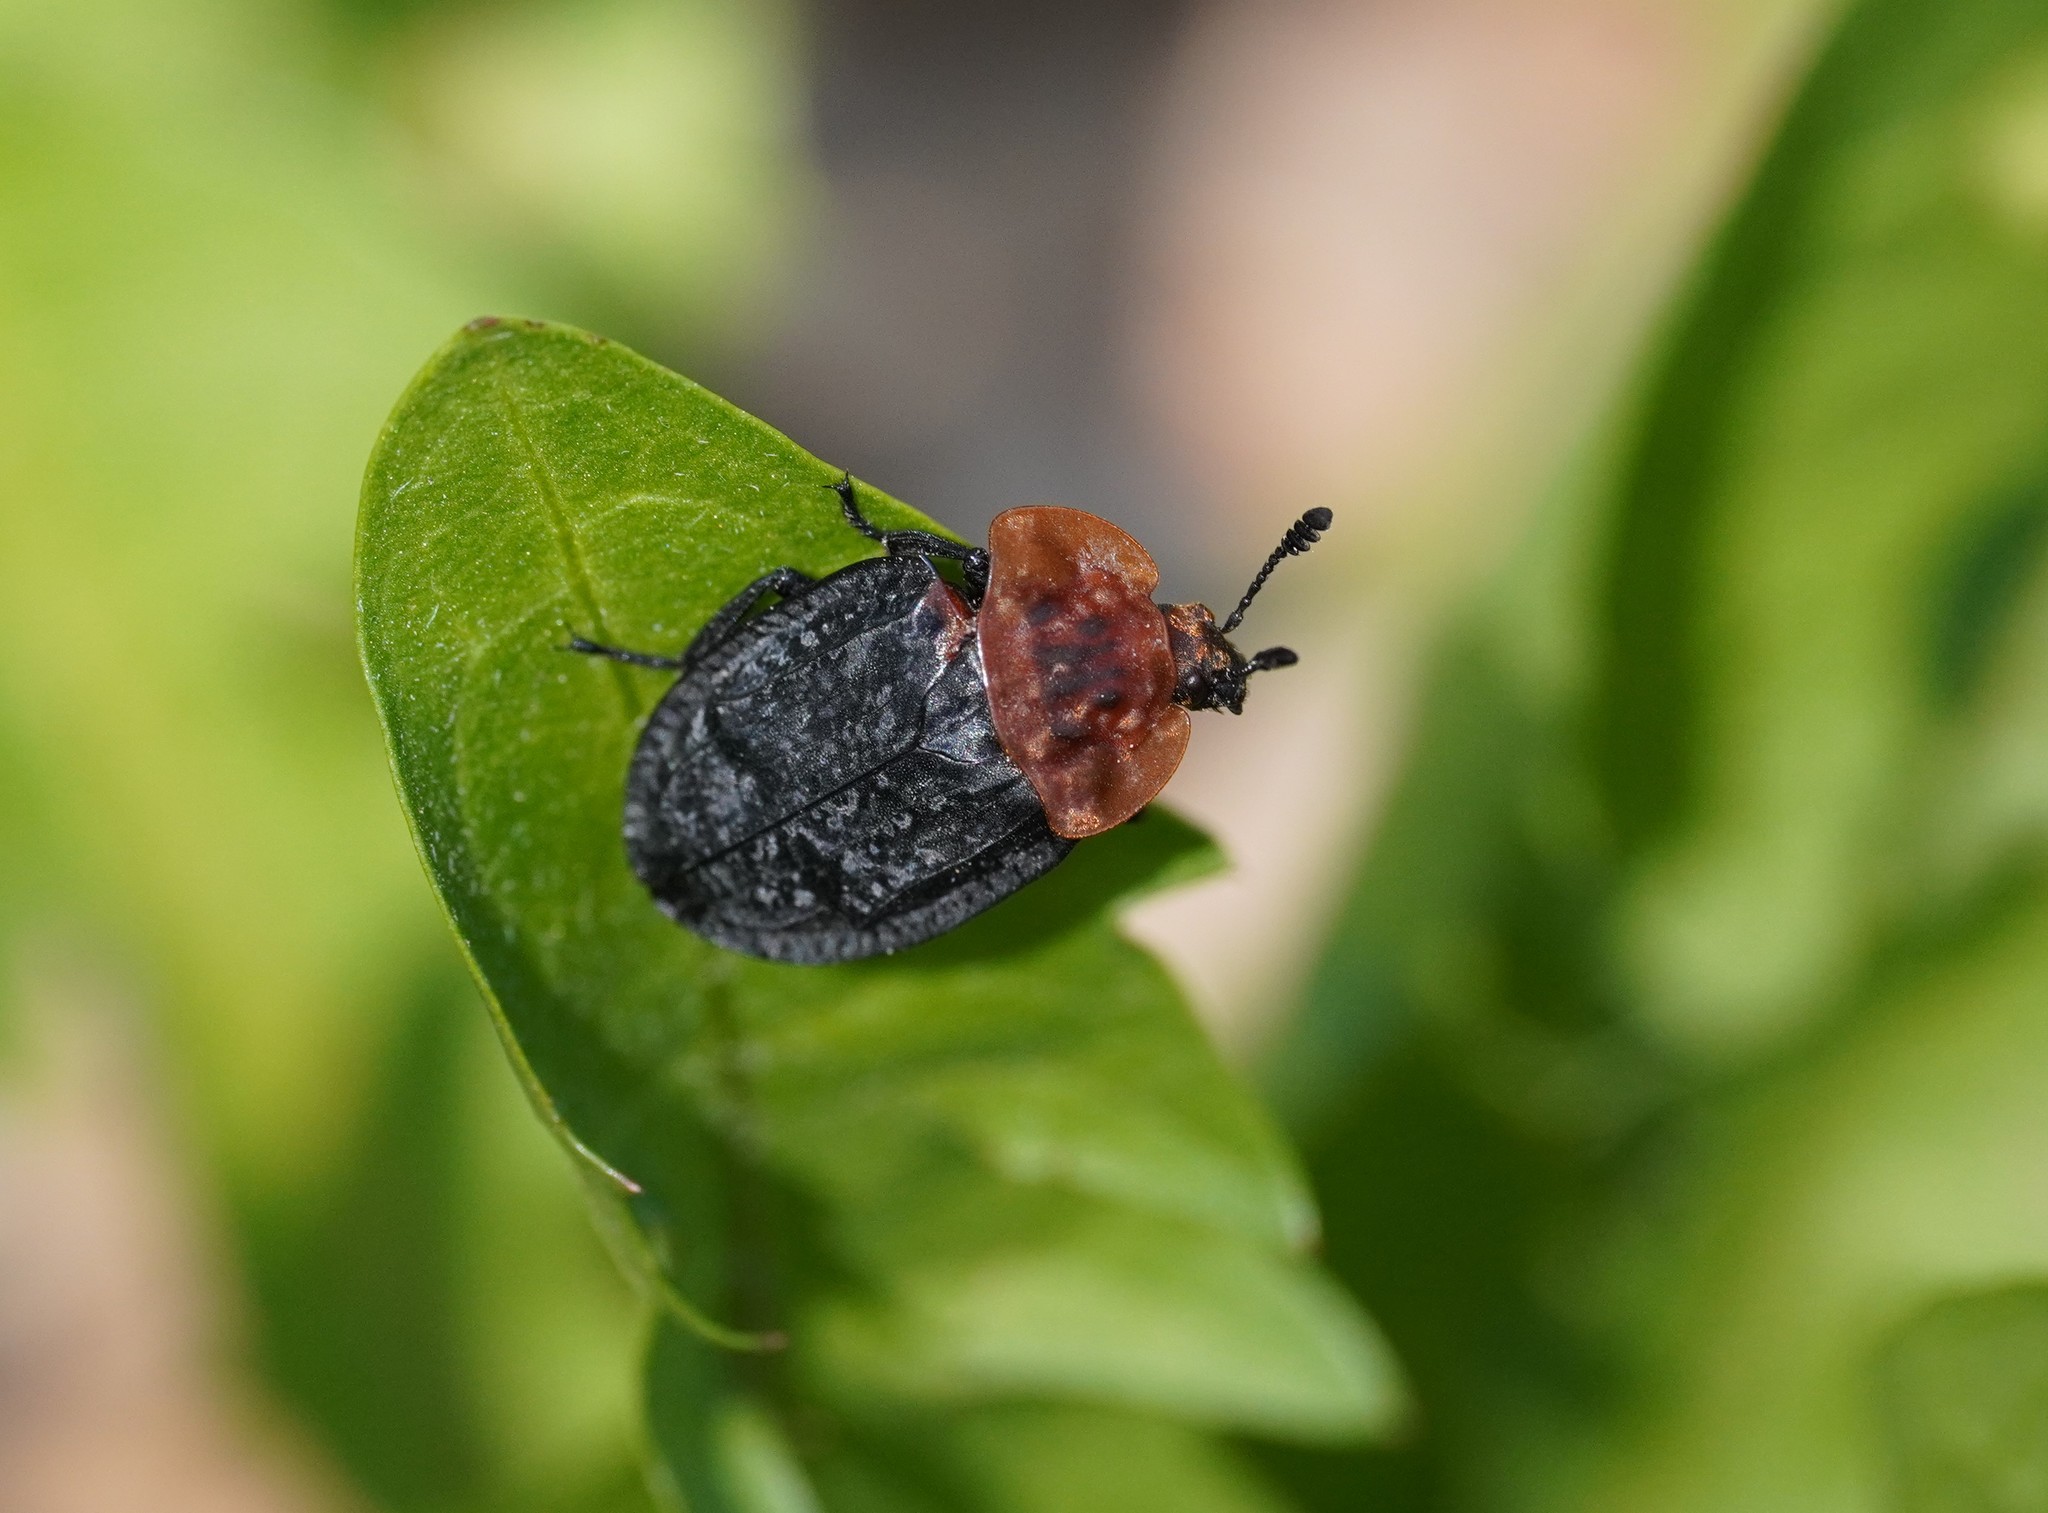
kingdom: Animalia
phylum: Arthropoda
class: Insecta
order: Coleoptera
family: Staphylinidae
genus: Oiceoptoma
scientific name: Oiceoptoma thoracicum
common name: Red-breasted carrion beetle
